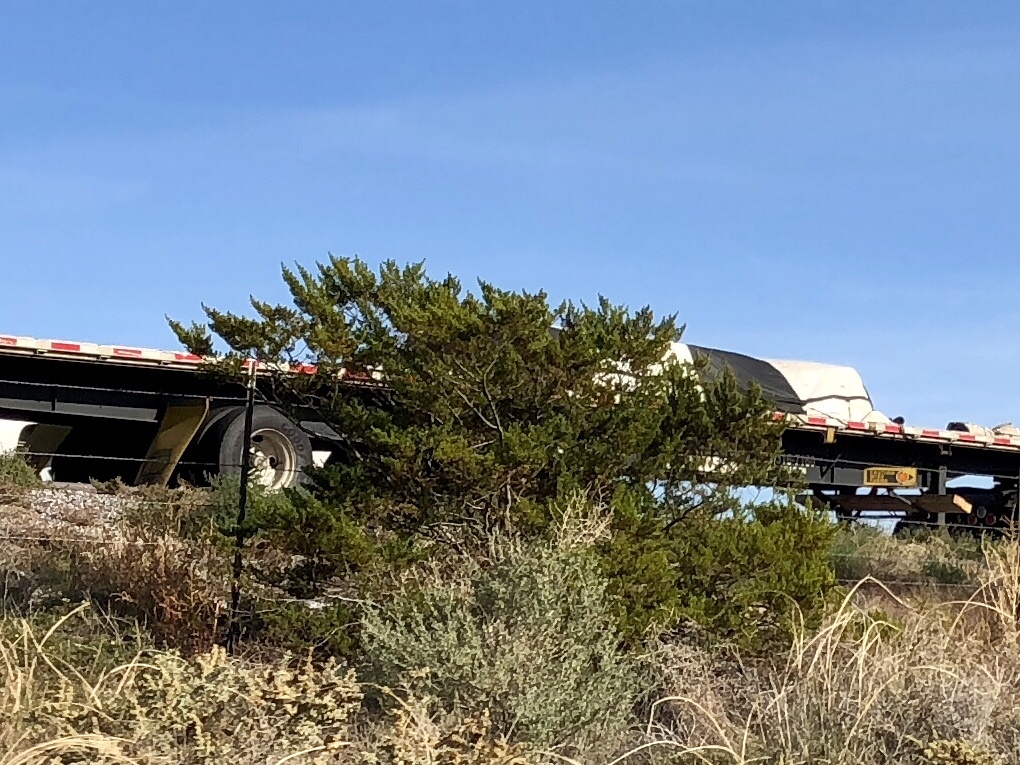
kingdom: Plantae
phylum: Tracheophyta
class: Magnoliopsida
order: Zygophyllales
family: Zygophyllaceae
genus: Larrea
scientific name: Larrea tridentata
